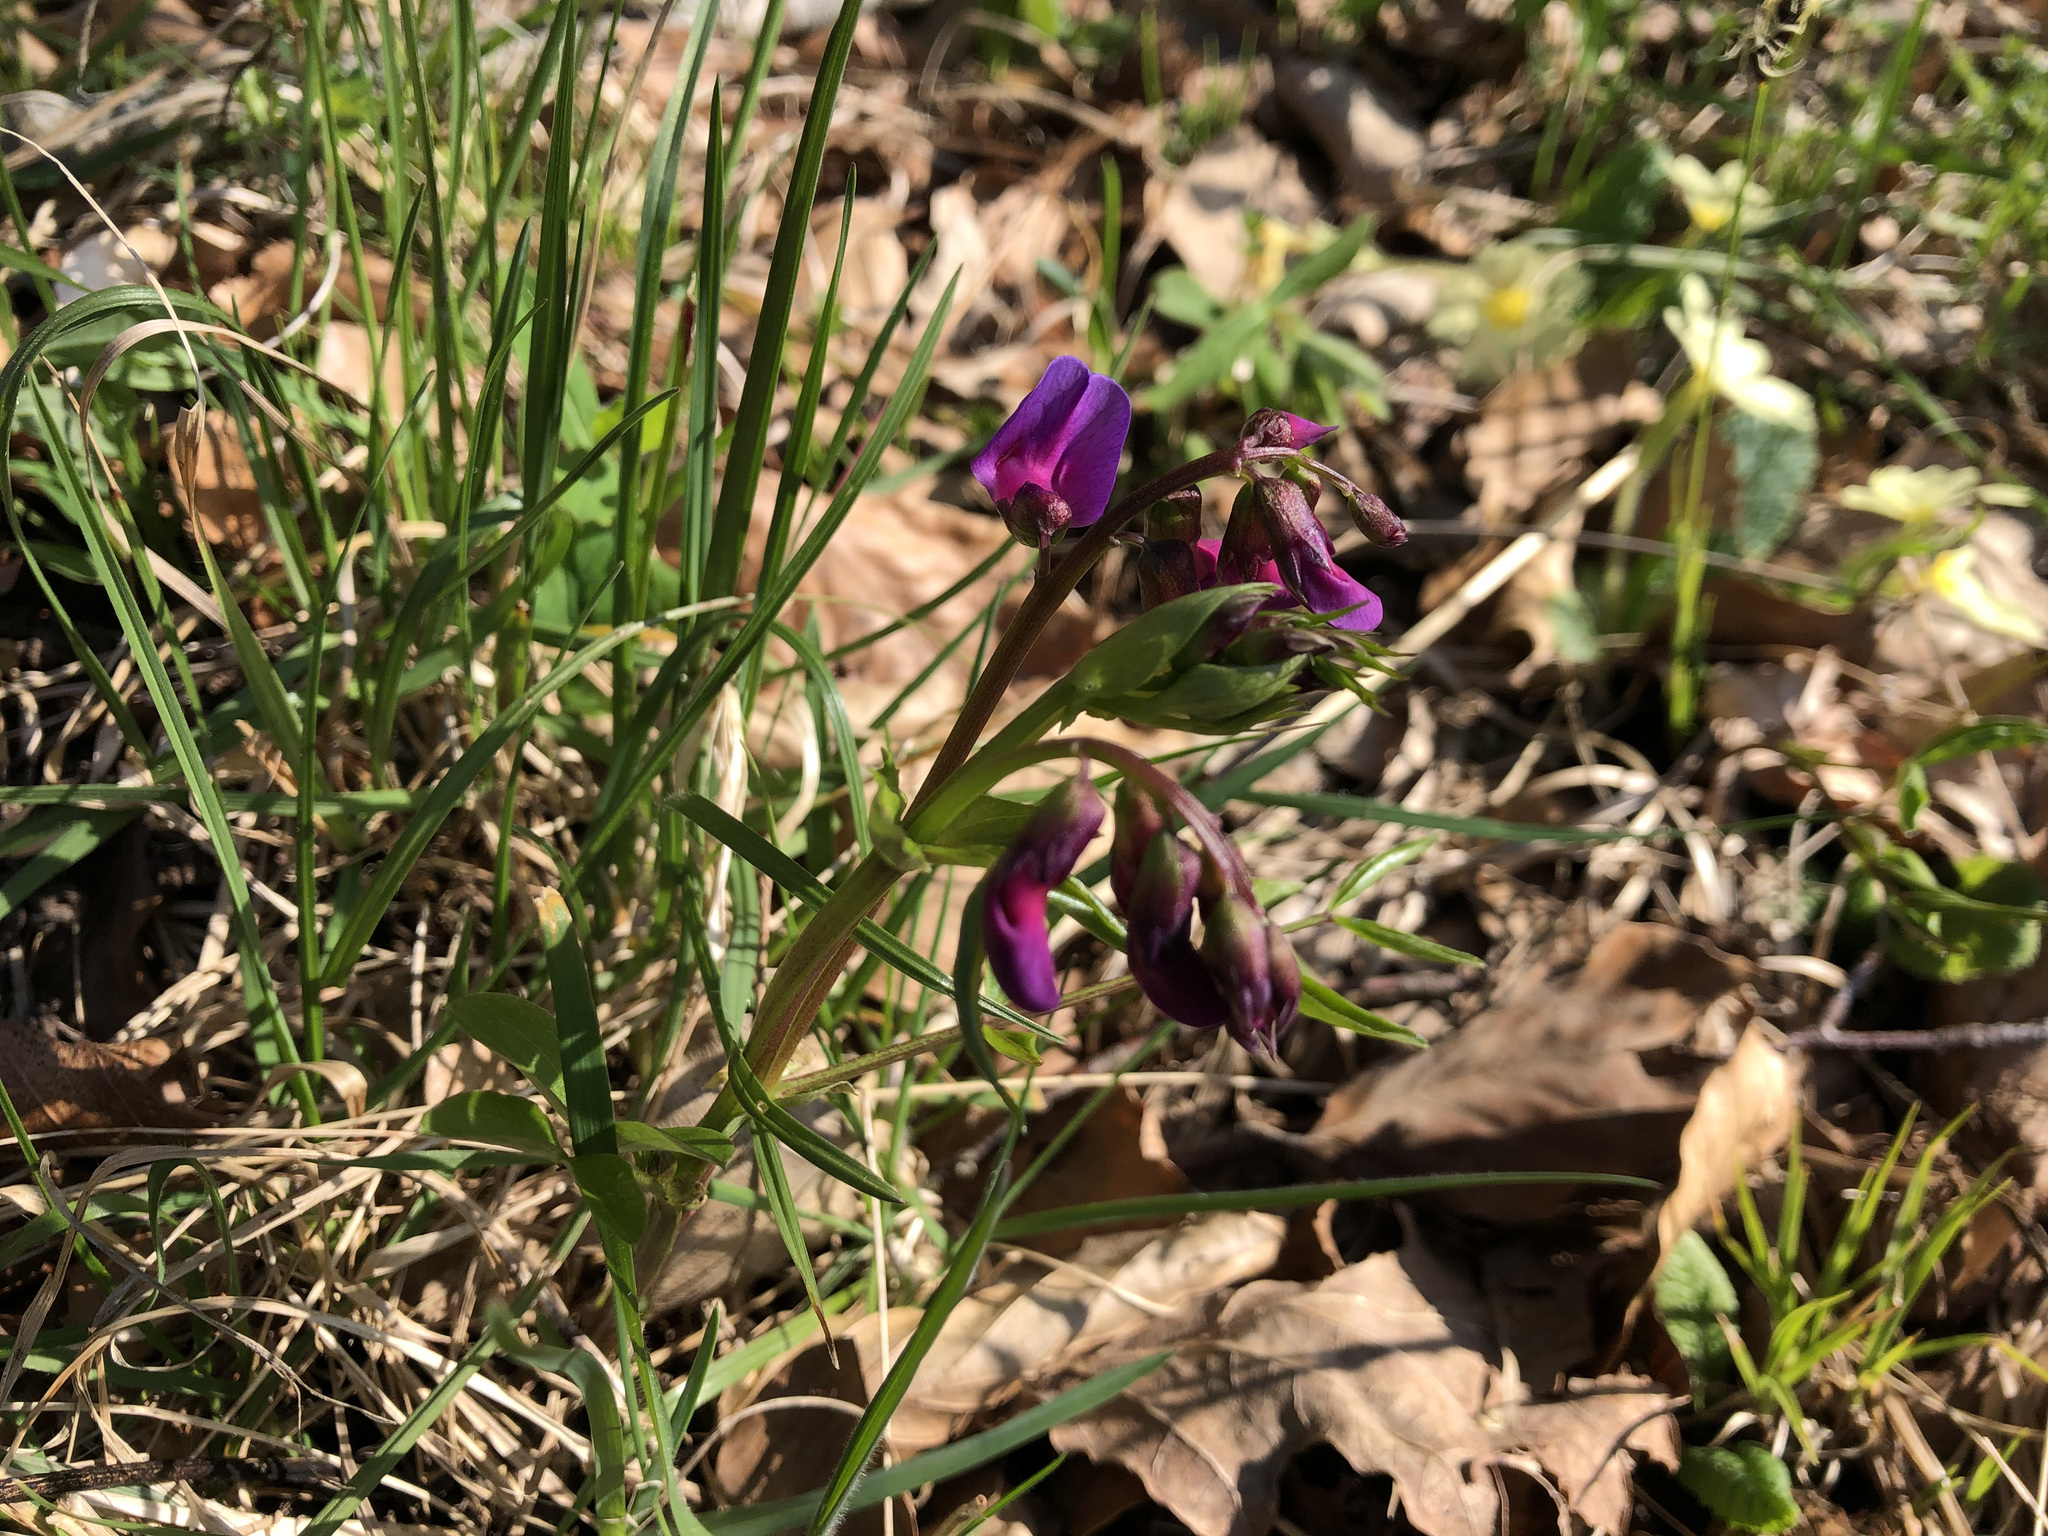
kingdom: Plantae
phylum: Tracheophyta
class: Magnoliopsida
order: Fabales
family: Fabaceae
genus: Lathyrus
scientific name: Lathyrus vernus
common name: Spring pea
